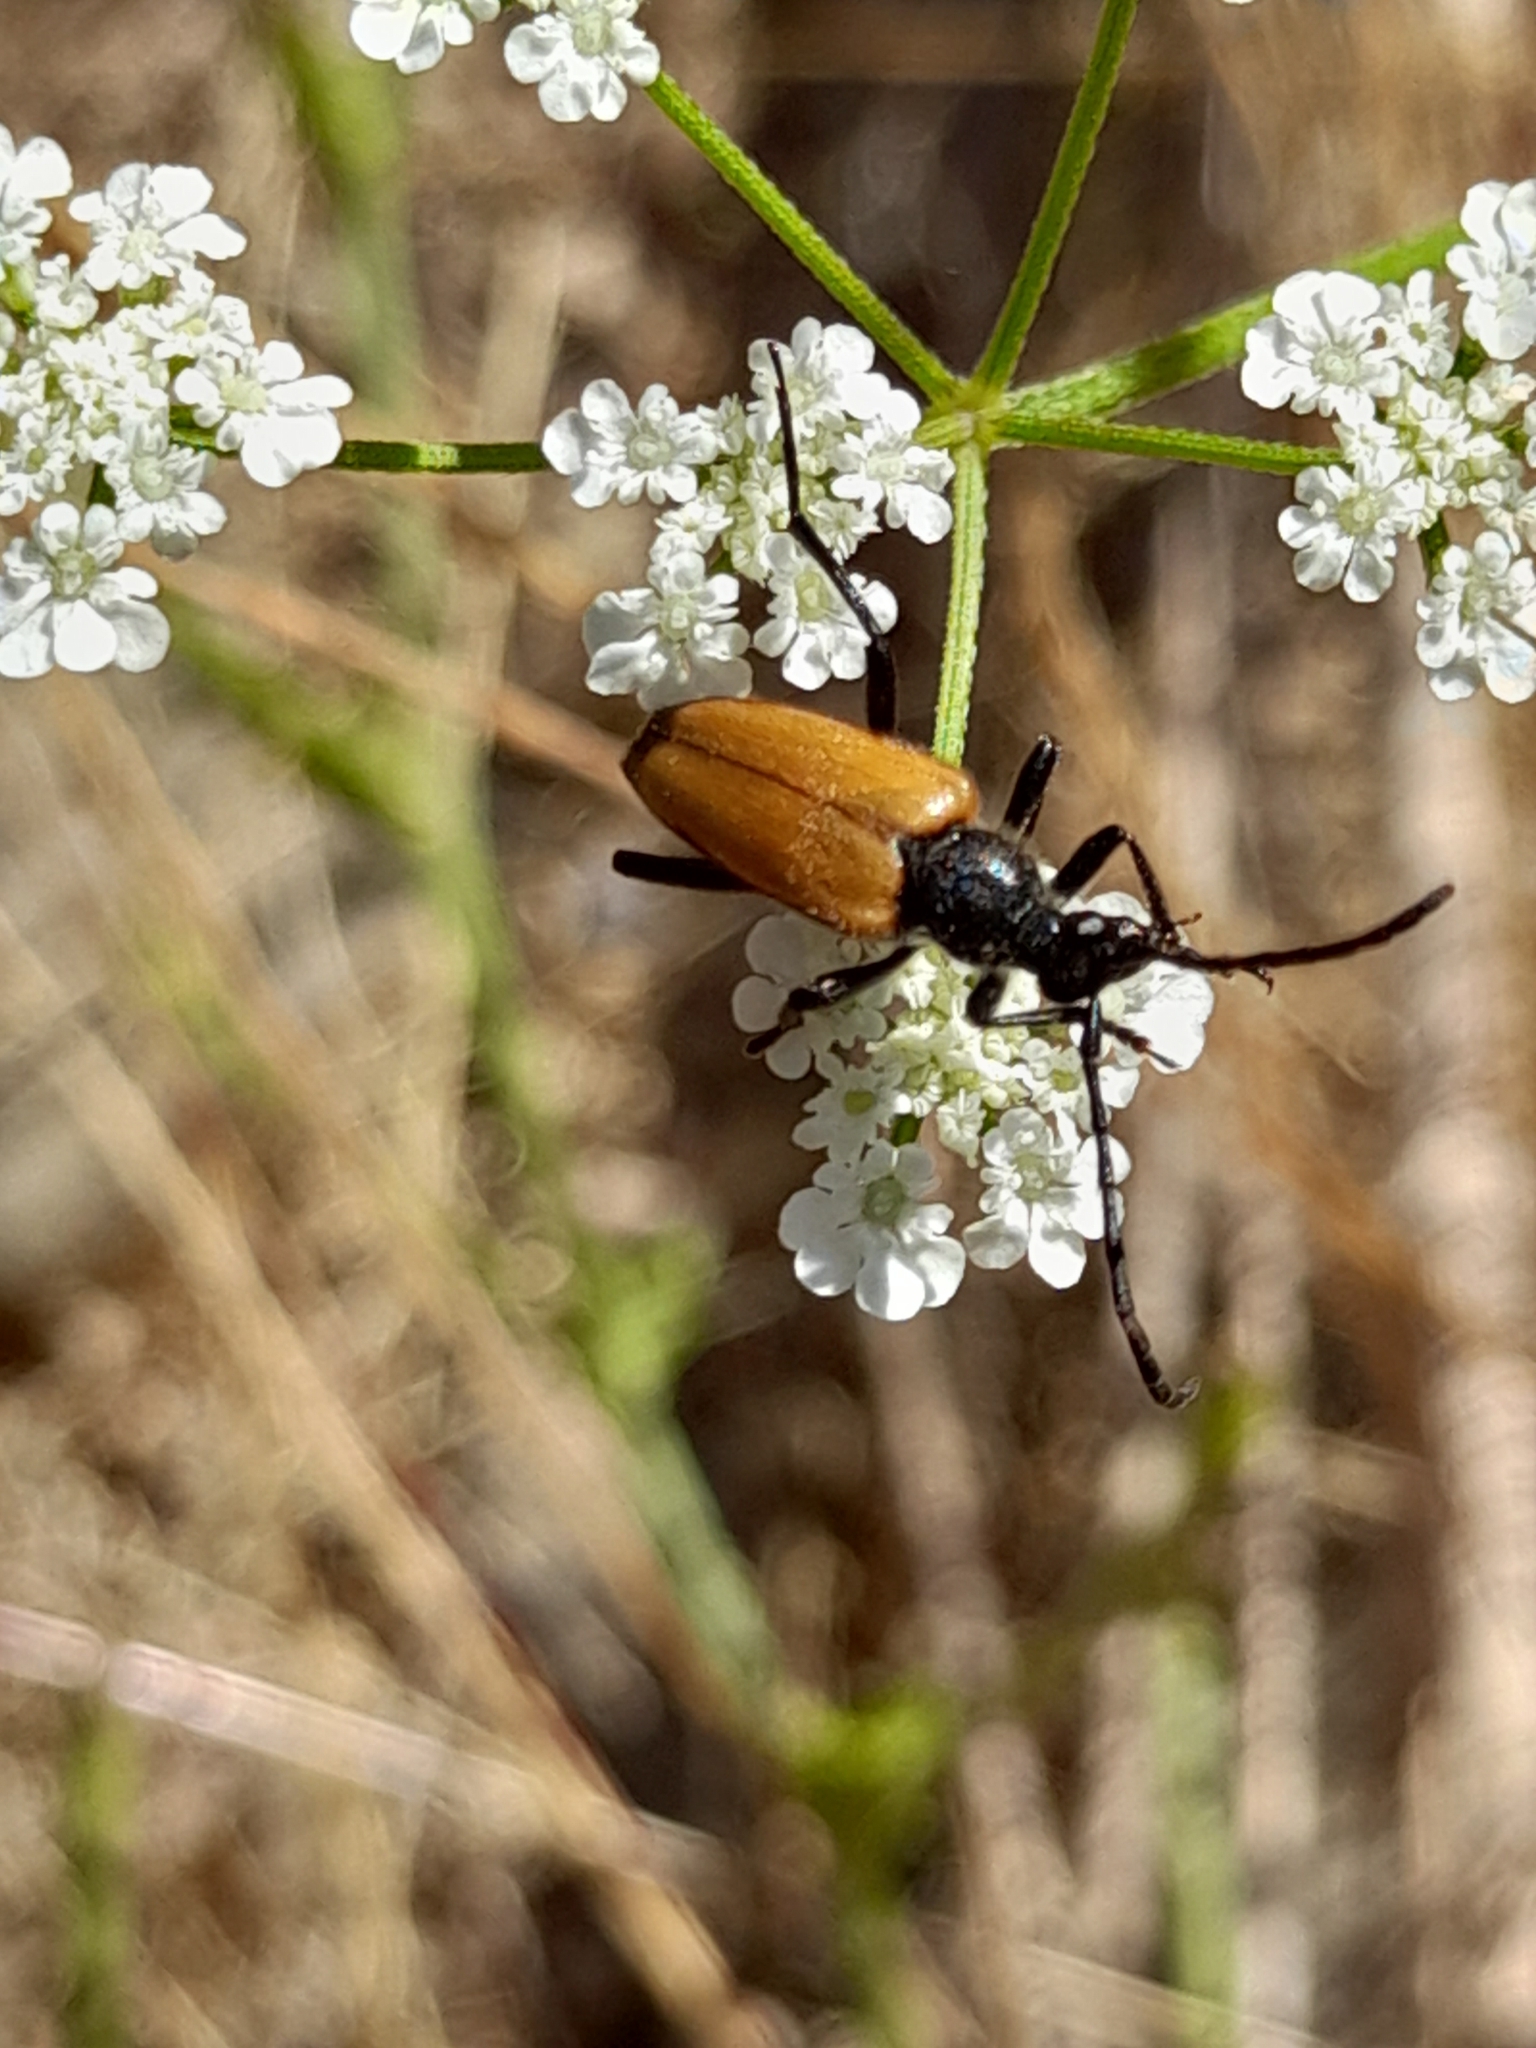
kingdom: Animalia
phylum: Arthropoda
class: Insecta
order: Coleoptera
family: Cerambycidae
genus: Paracorymbia
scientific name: Paracorymbia fulva
